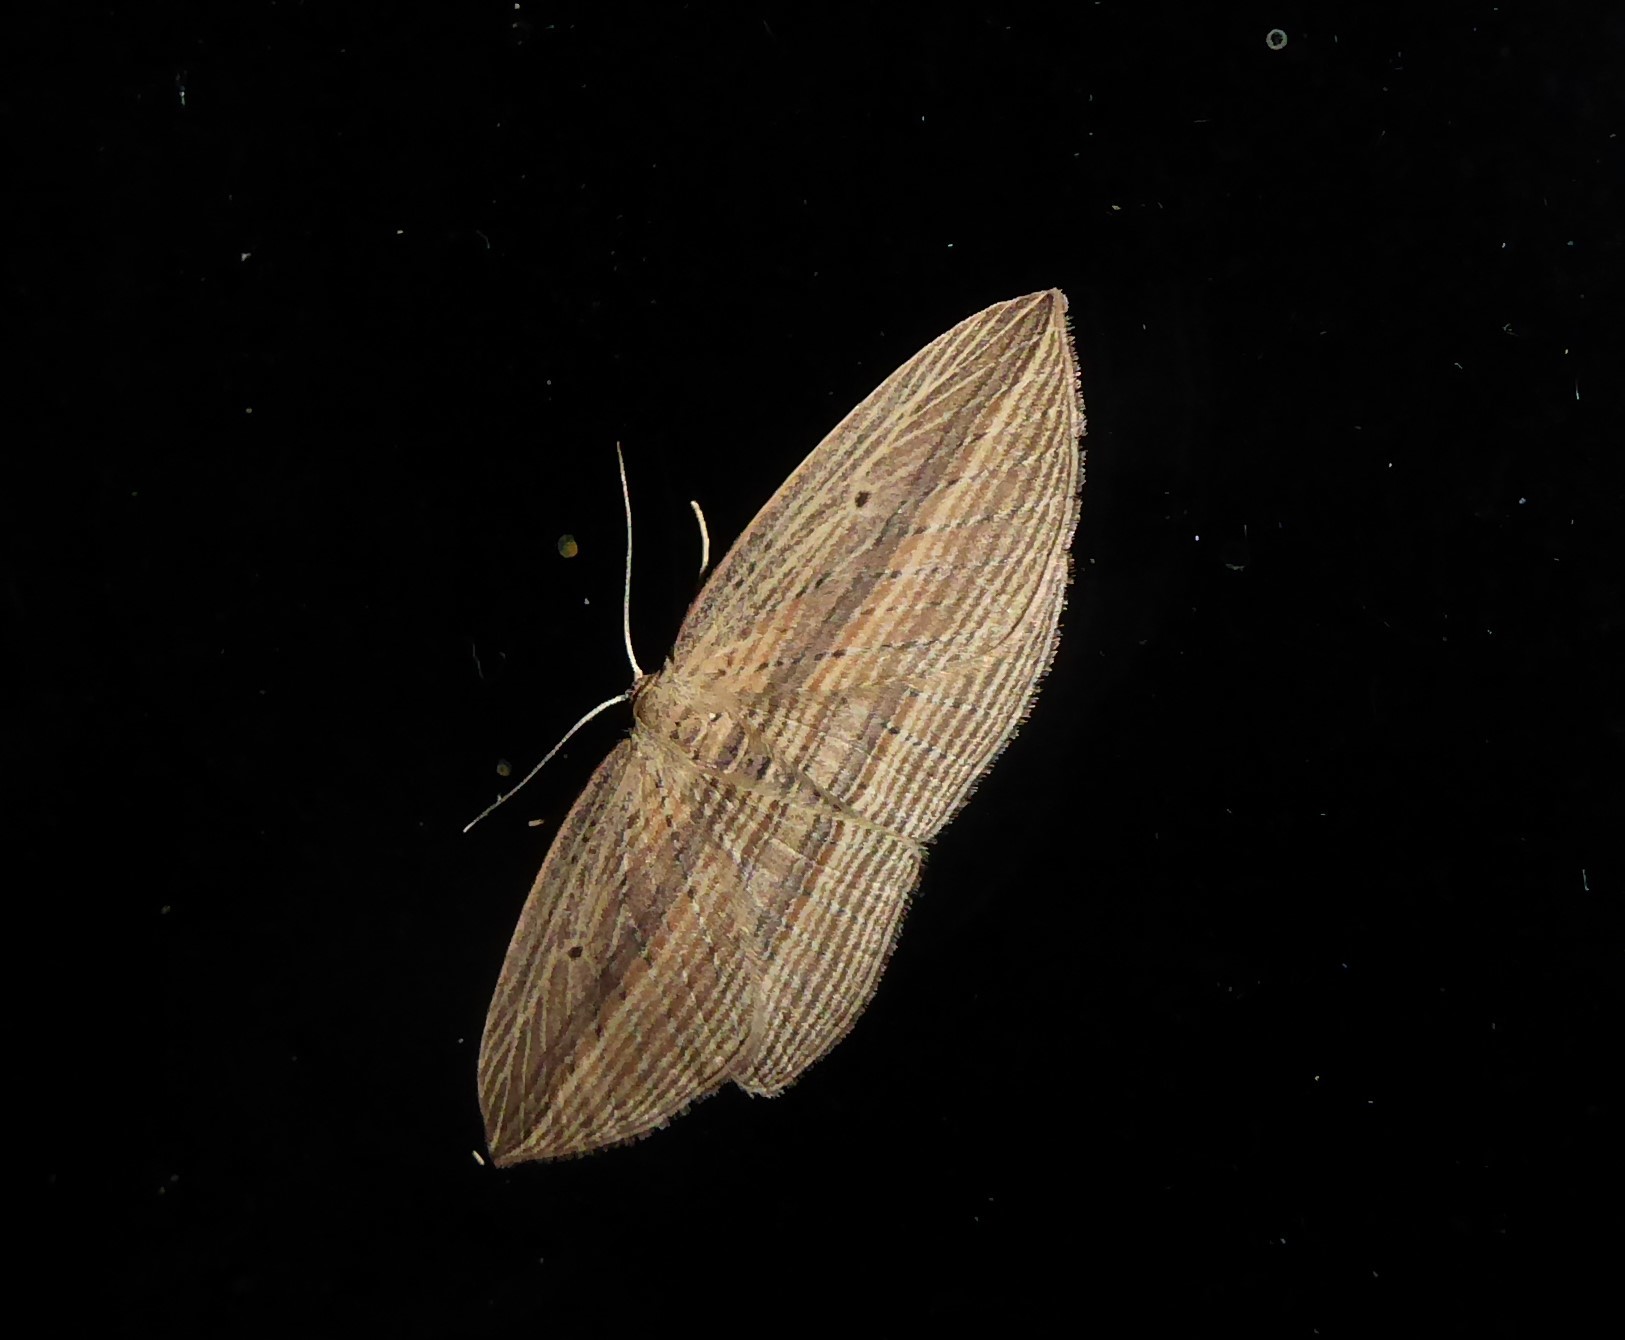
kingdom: Animalia
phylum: Arthropoda
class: Insecta
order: Lepidoptera
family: Geometridae
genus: Epiphryne
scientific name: Epiphryne verriculata
